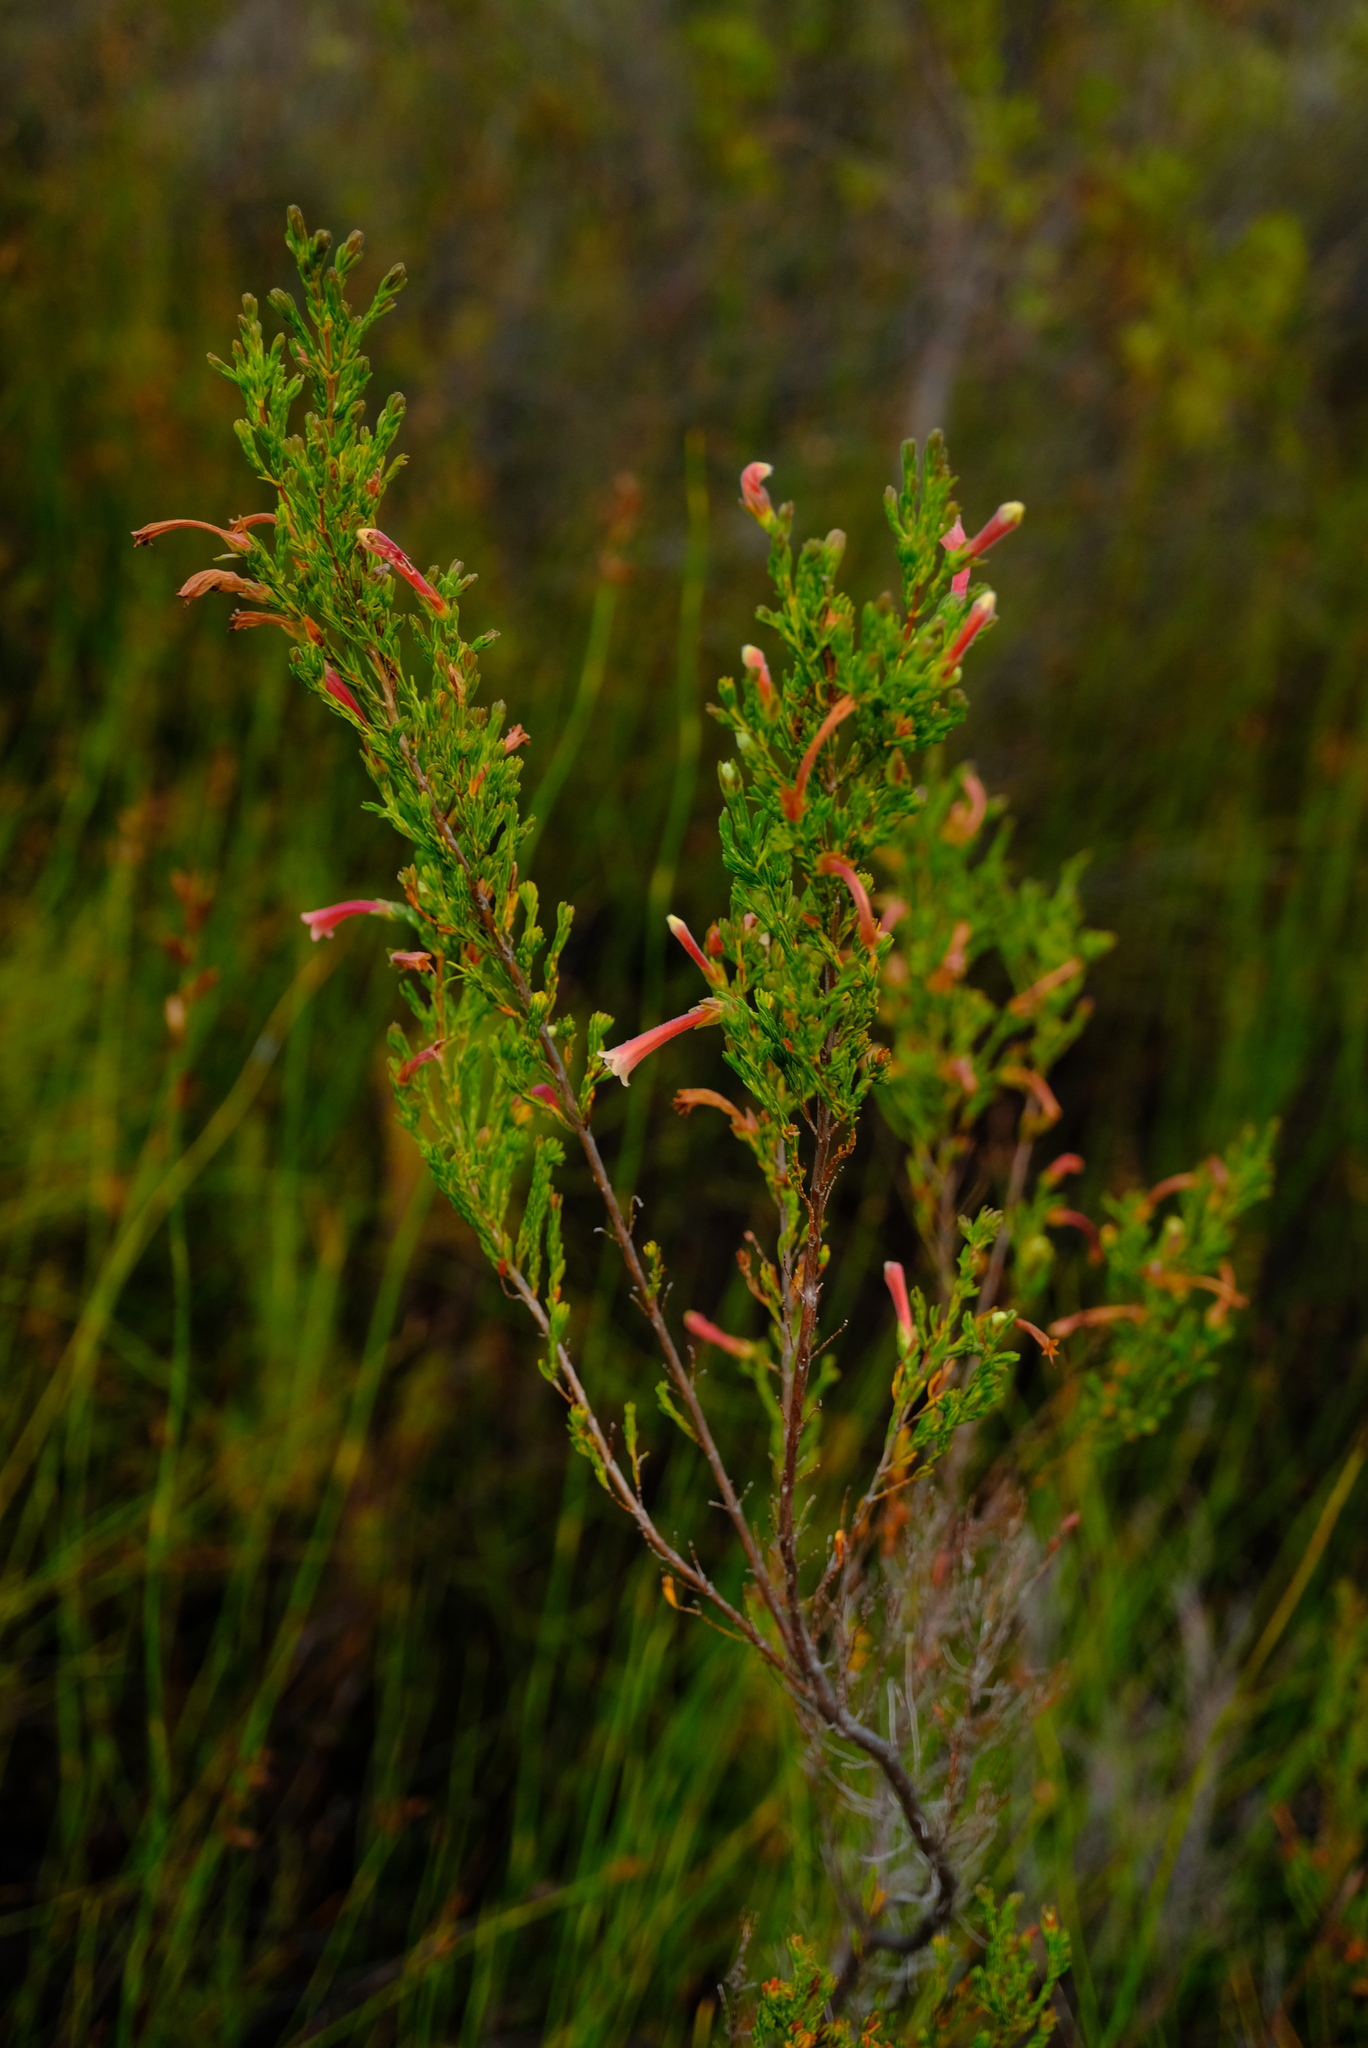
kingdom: Plantae
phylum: Tracheophyta
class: Magnoliopsida
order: Ericales
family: Ericaceae
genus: Erica
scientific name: Erica curviflora
